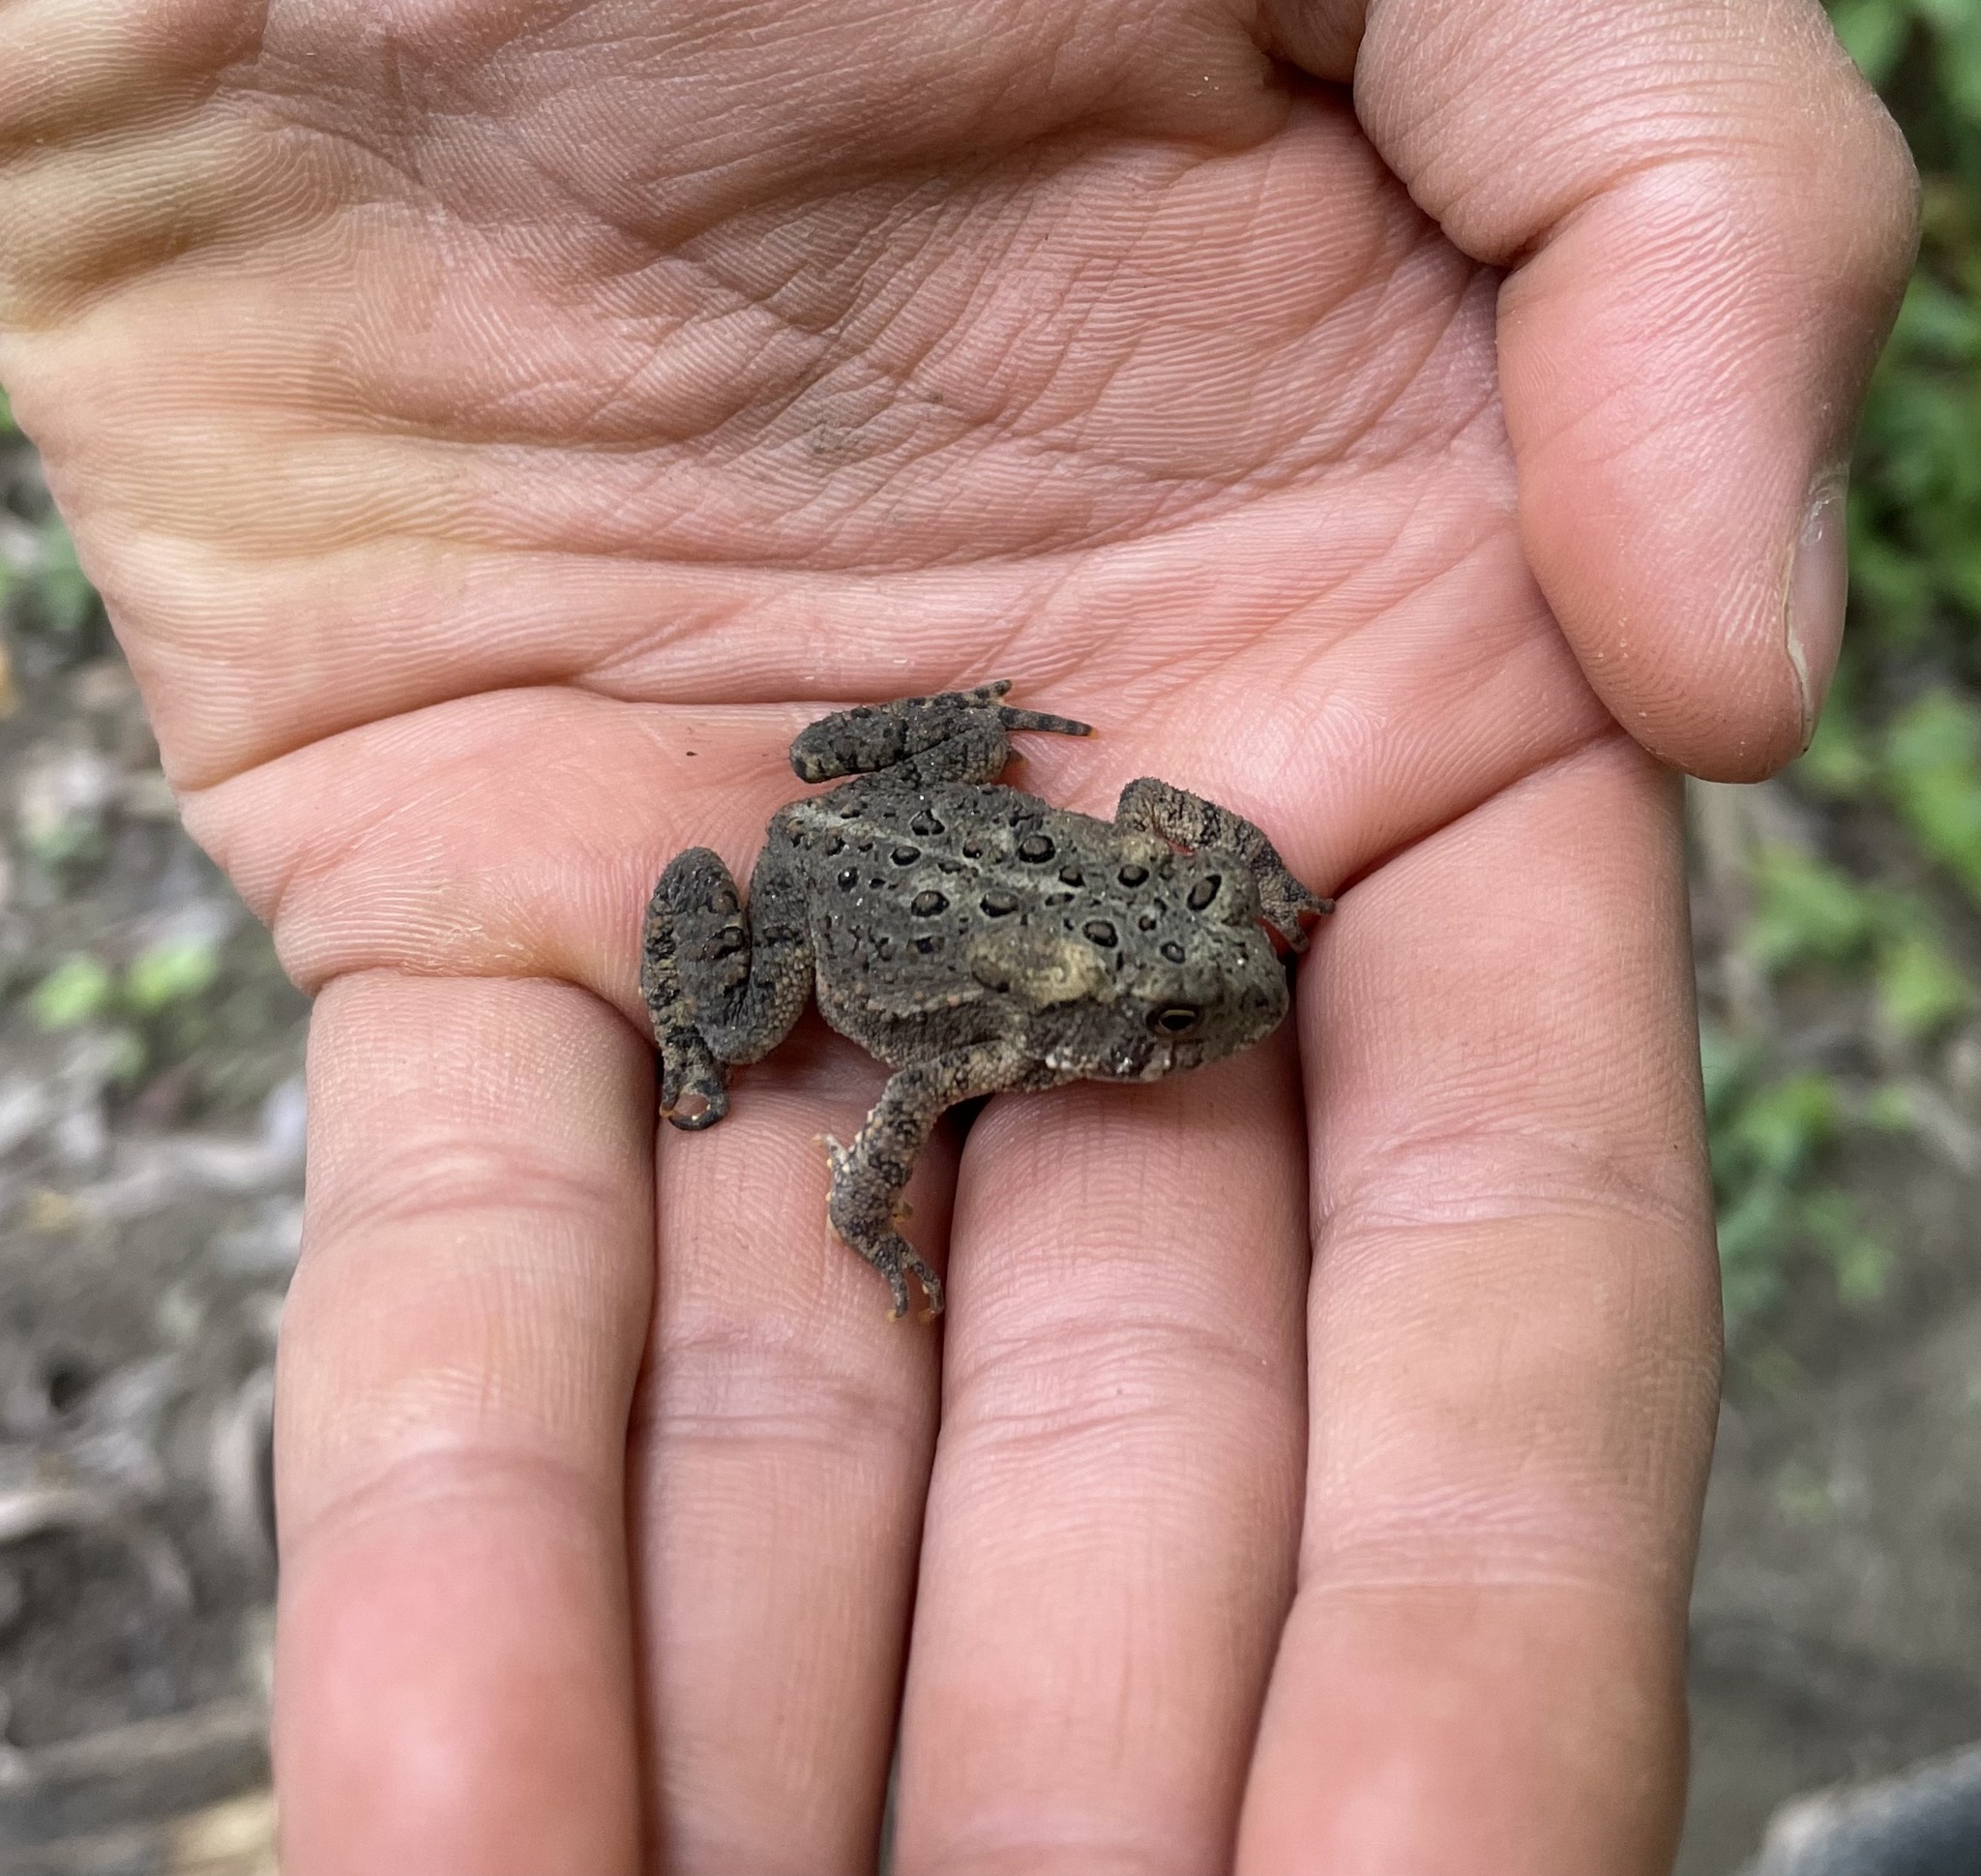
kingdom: Animalia
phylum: Chordata
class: Amphibia
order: Anura
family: Bufonidae
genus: Anaxyrus
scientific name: Anaxyrus americanus
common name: American toad
